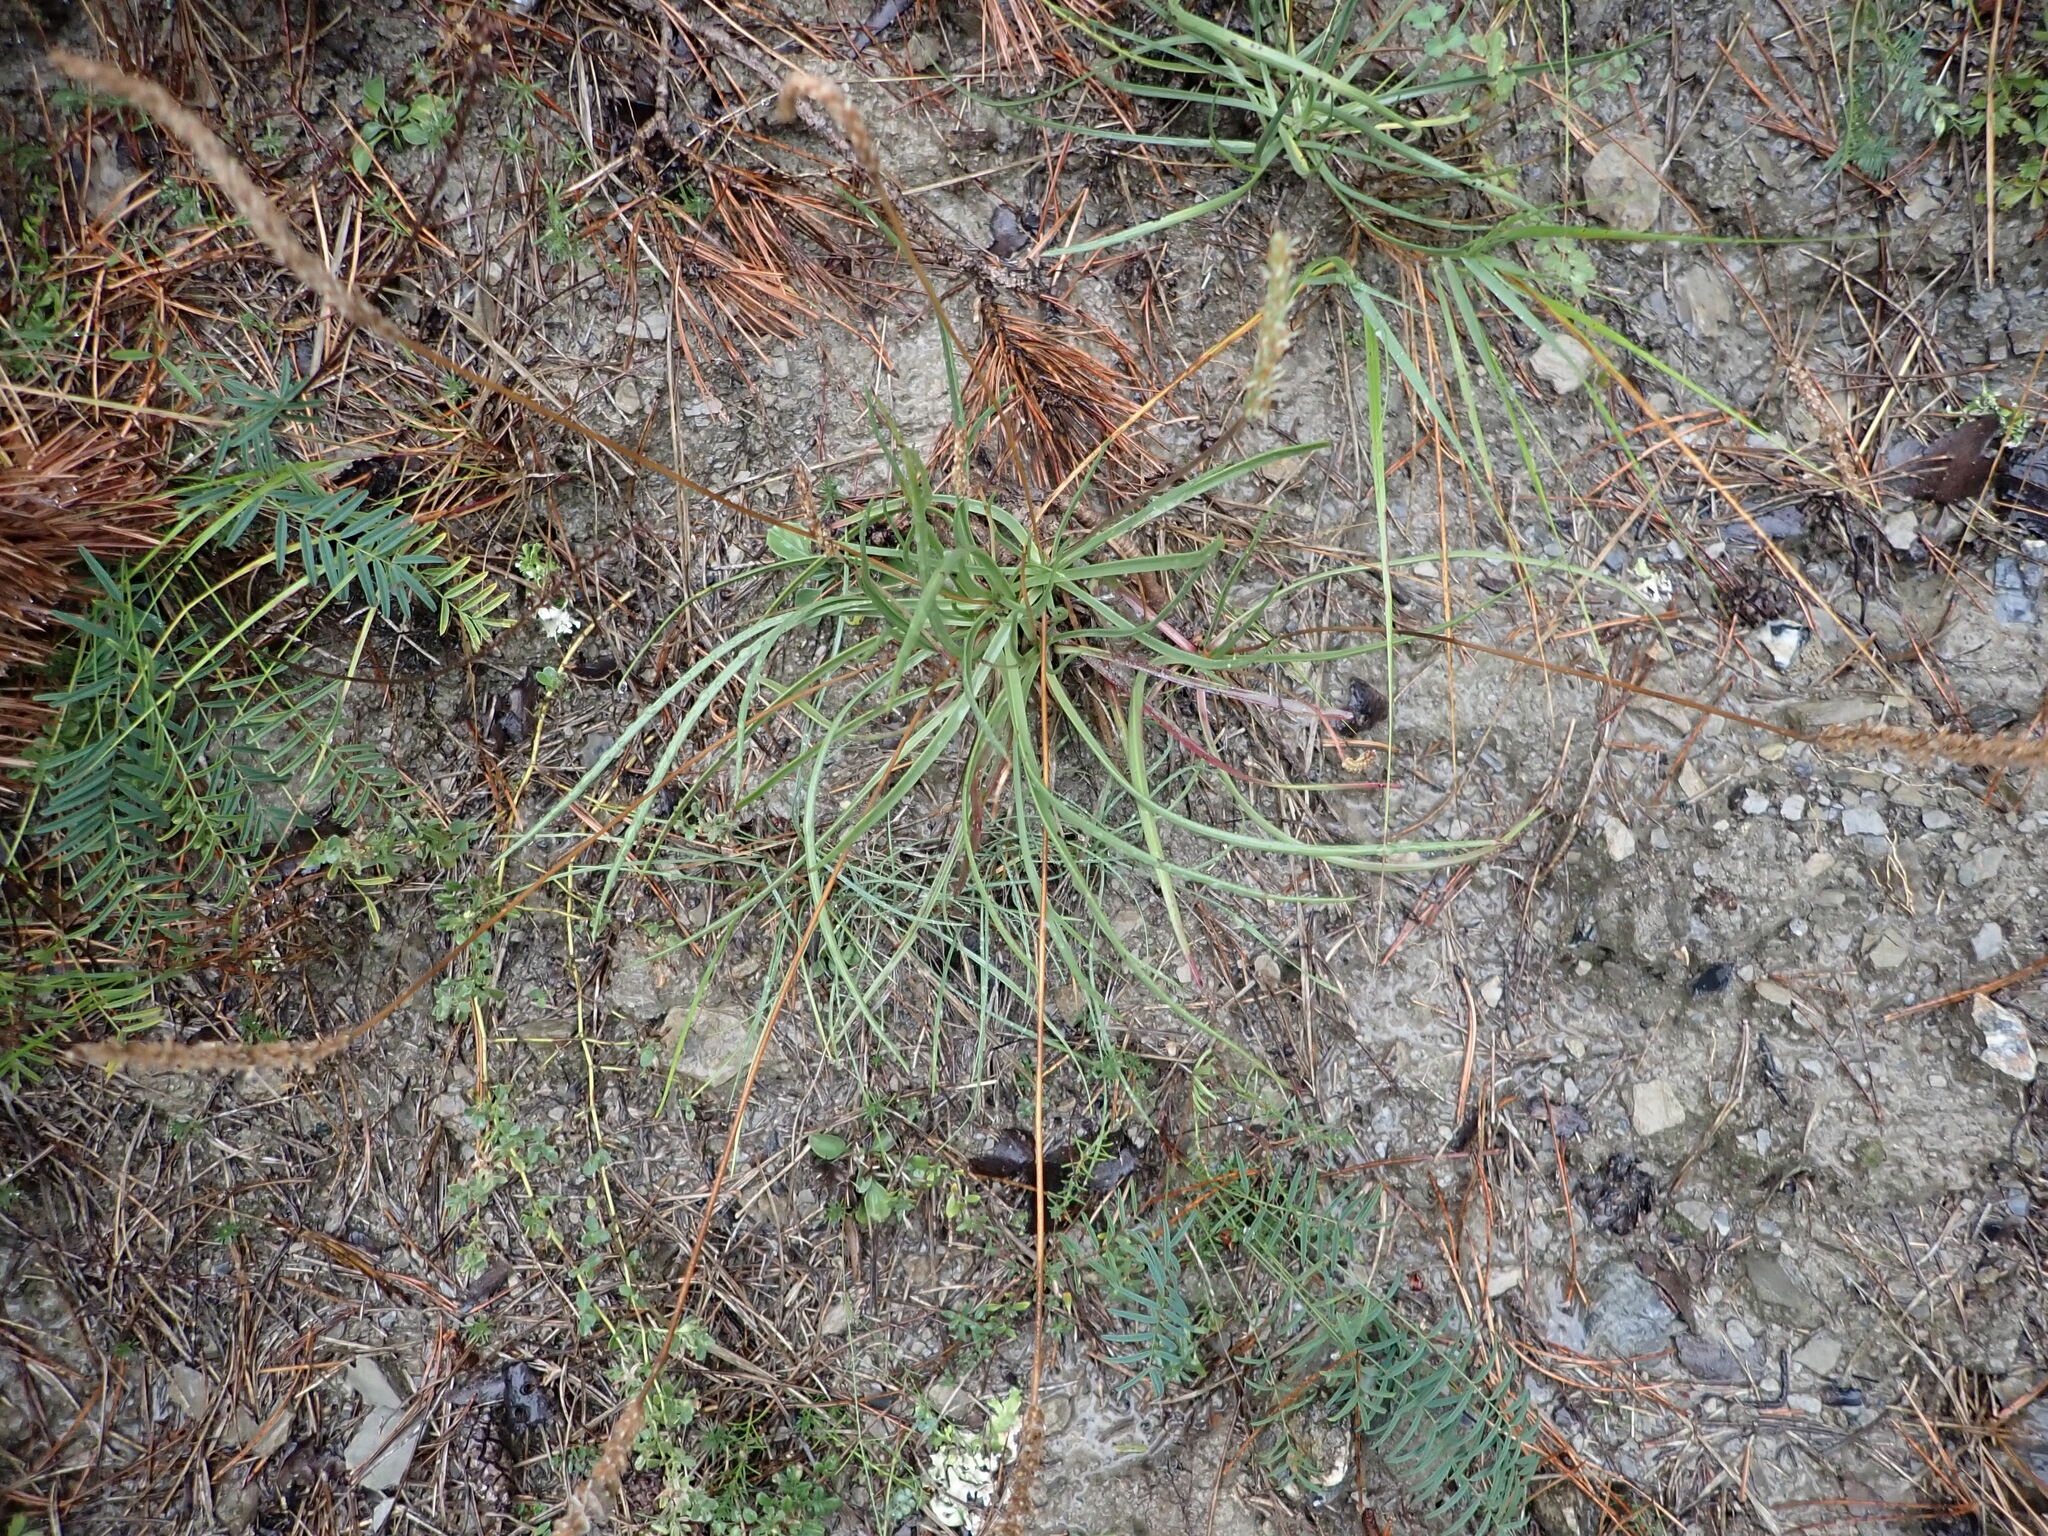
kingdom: Plantae
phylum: Tracheophyta
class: Magnoliopsida
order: Lamiales
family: Plantaginaceae
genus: Plantago
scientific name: Plantago
